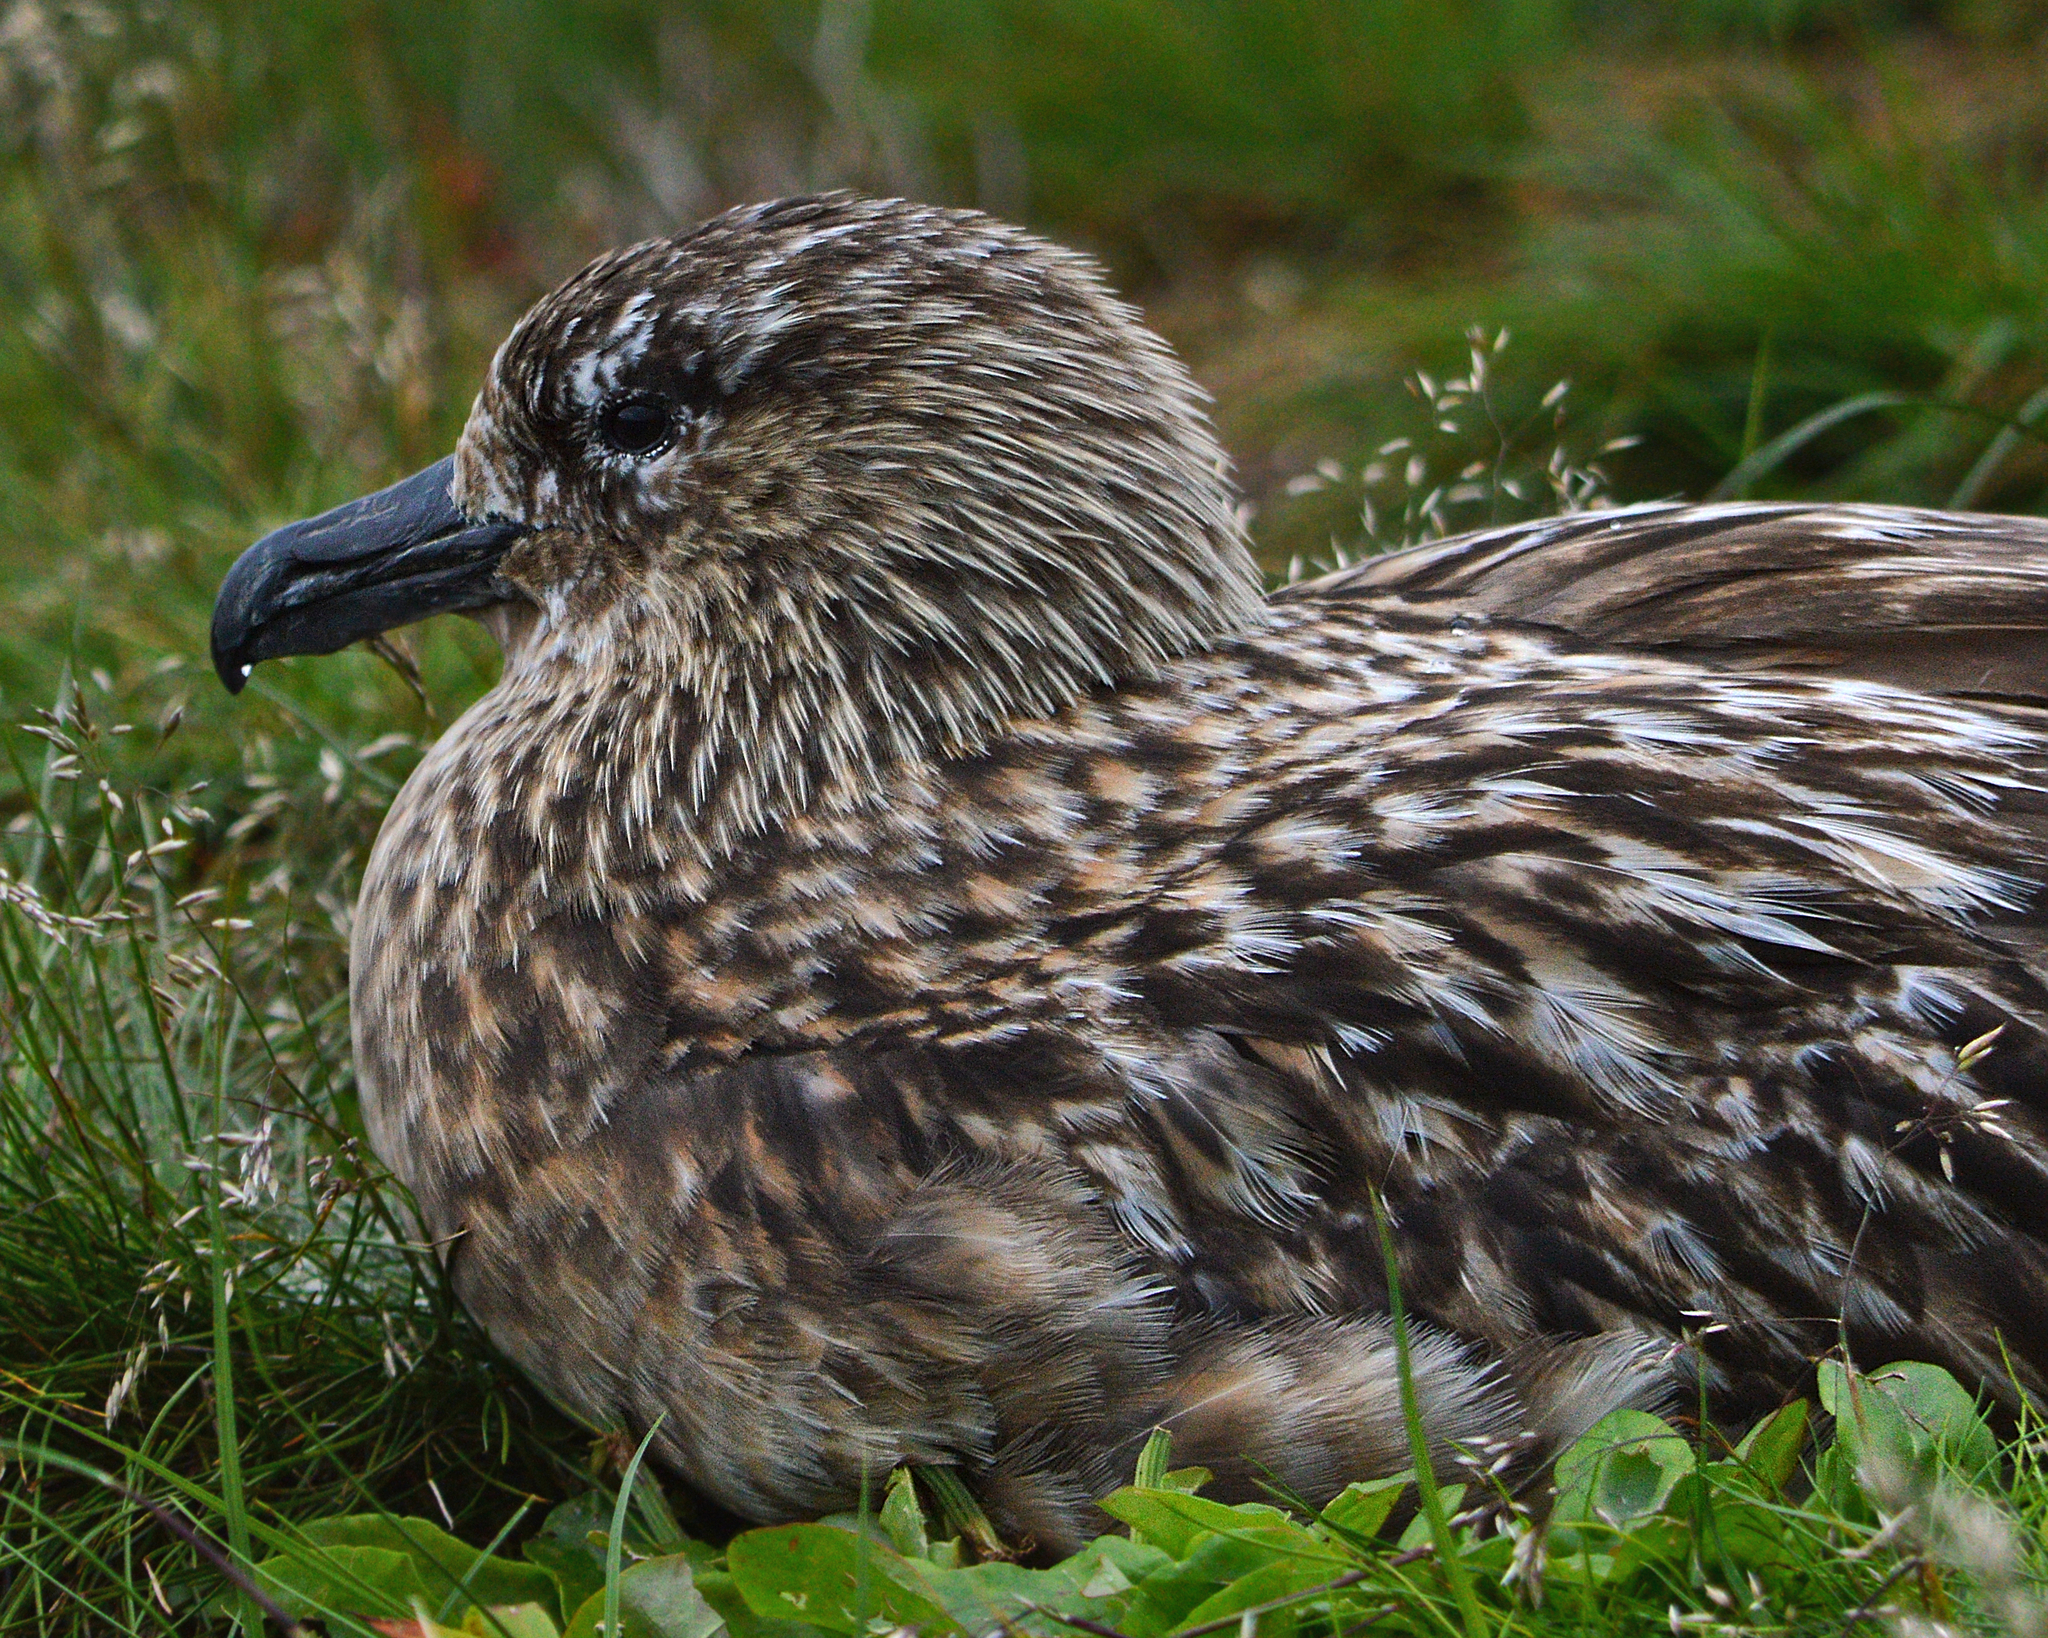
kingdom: Animalia
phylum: Chordata
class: Aves
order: Charadriiformes
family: Stercorariidae
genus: Stercorarius
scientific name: Stercorarius skua
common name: Great skua
